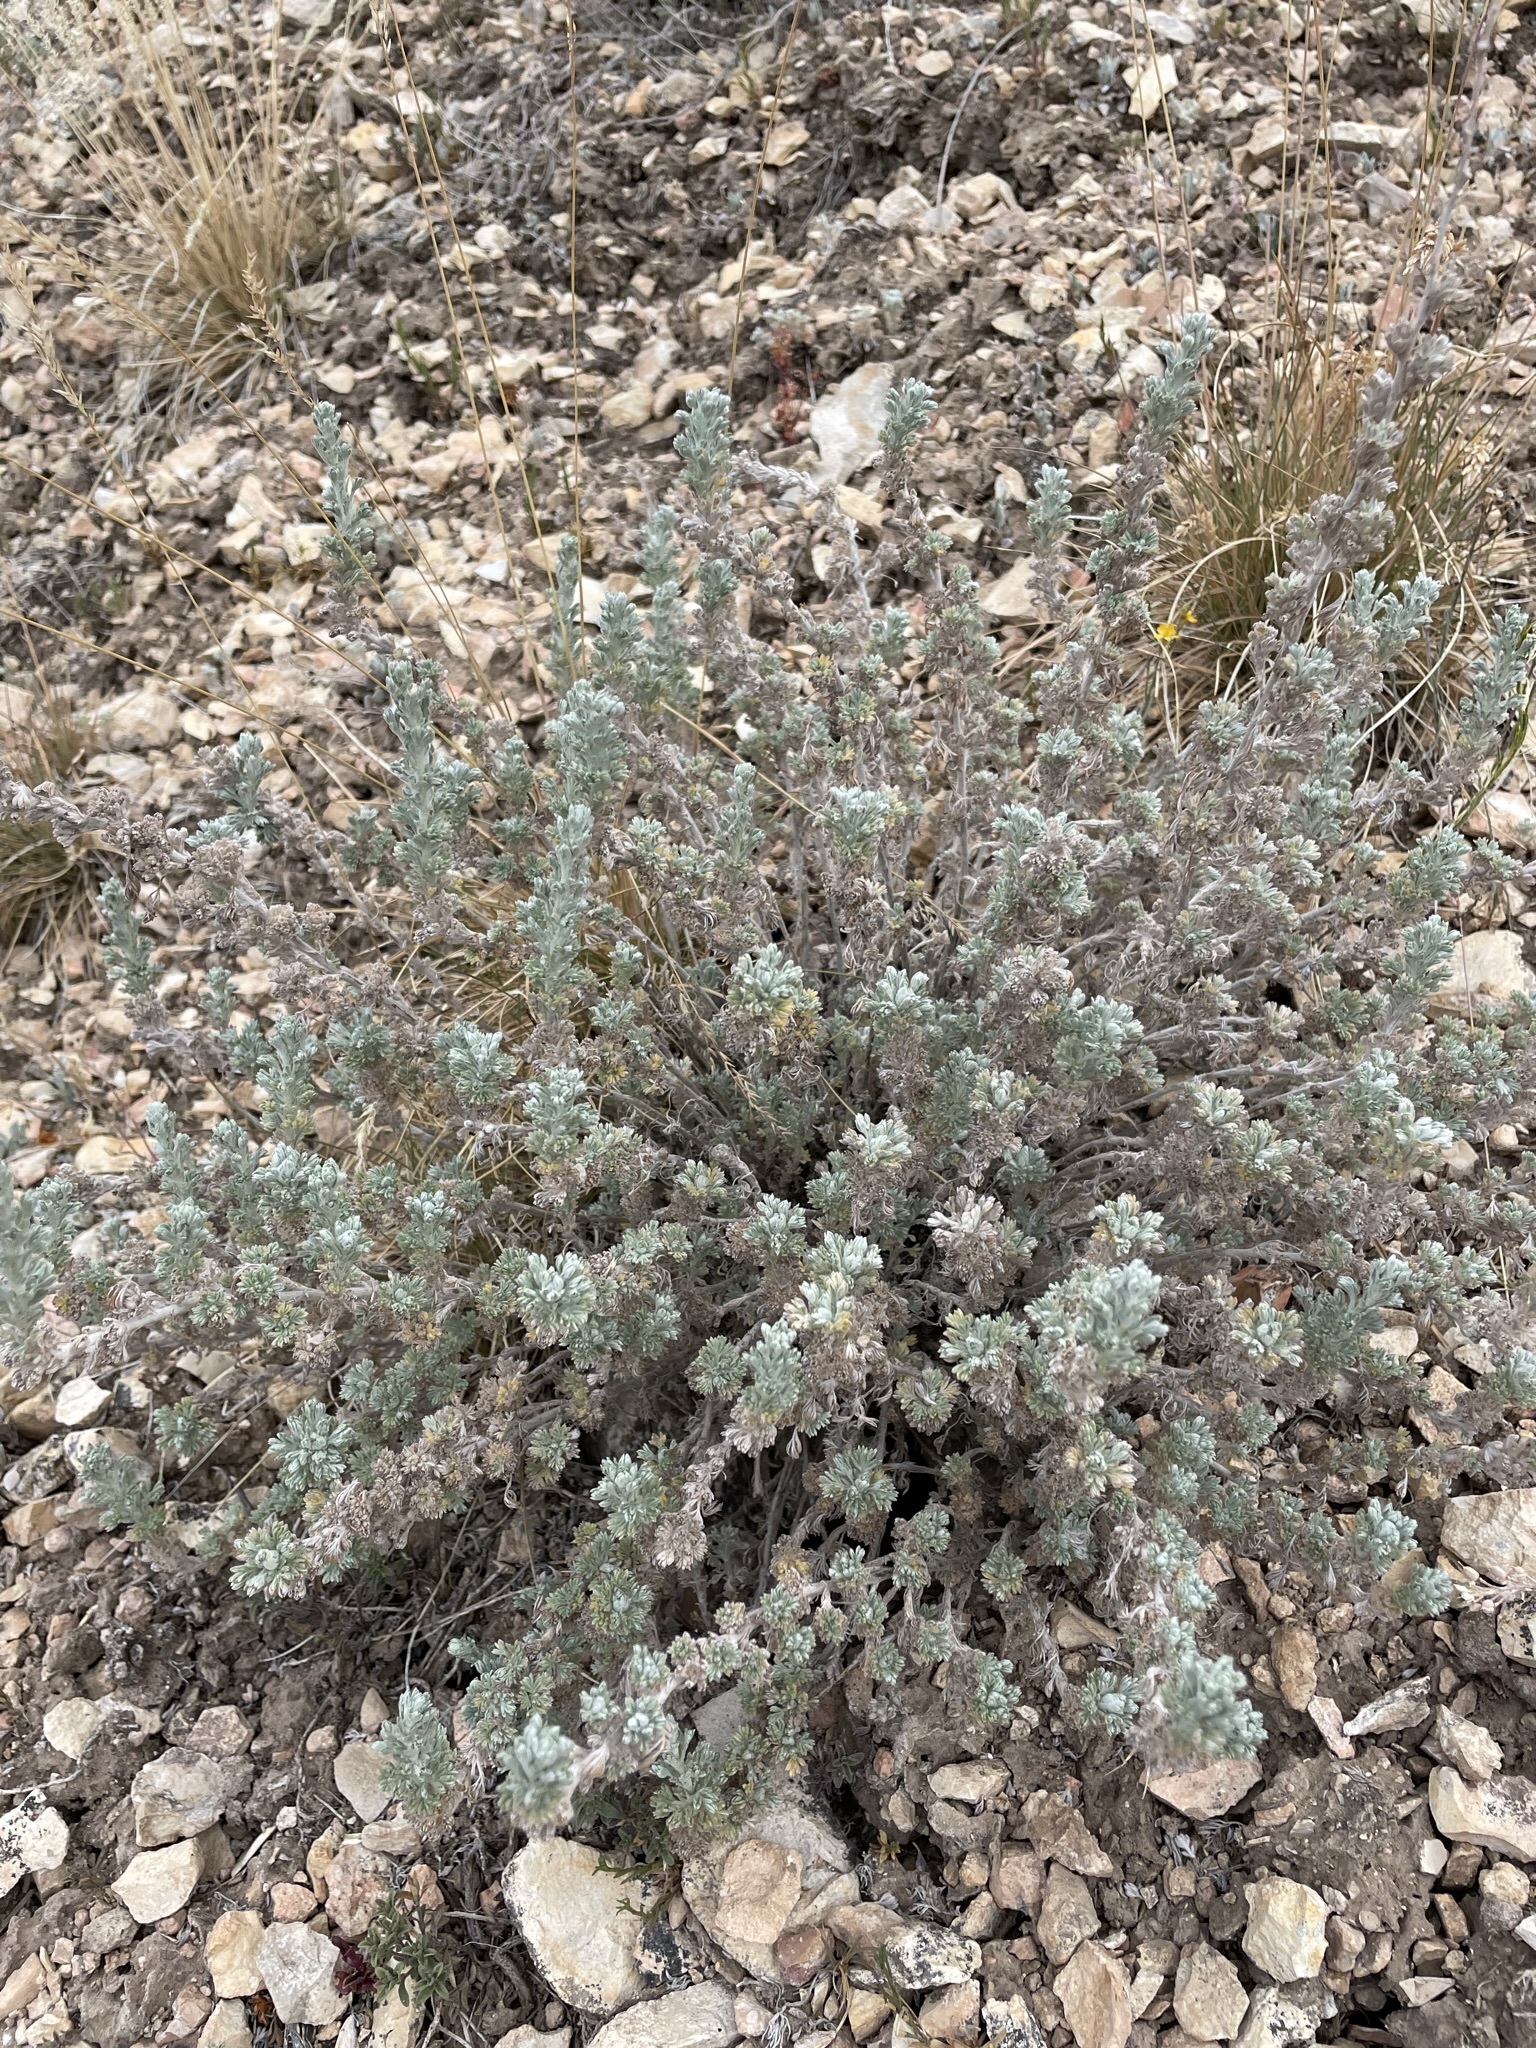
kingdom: Plantae
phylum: Tracheophyta
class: Magnoliopsida
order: Asterales
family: Asteraceae
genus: Artemisia
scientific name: Artemisia frigida
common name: Prairie sagewort
